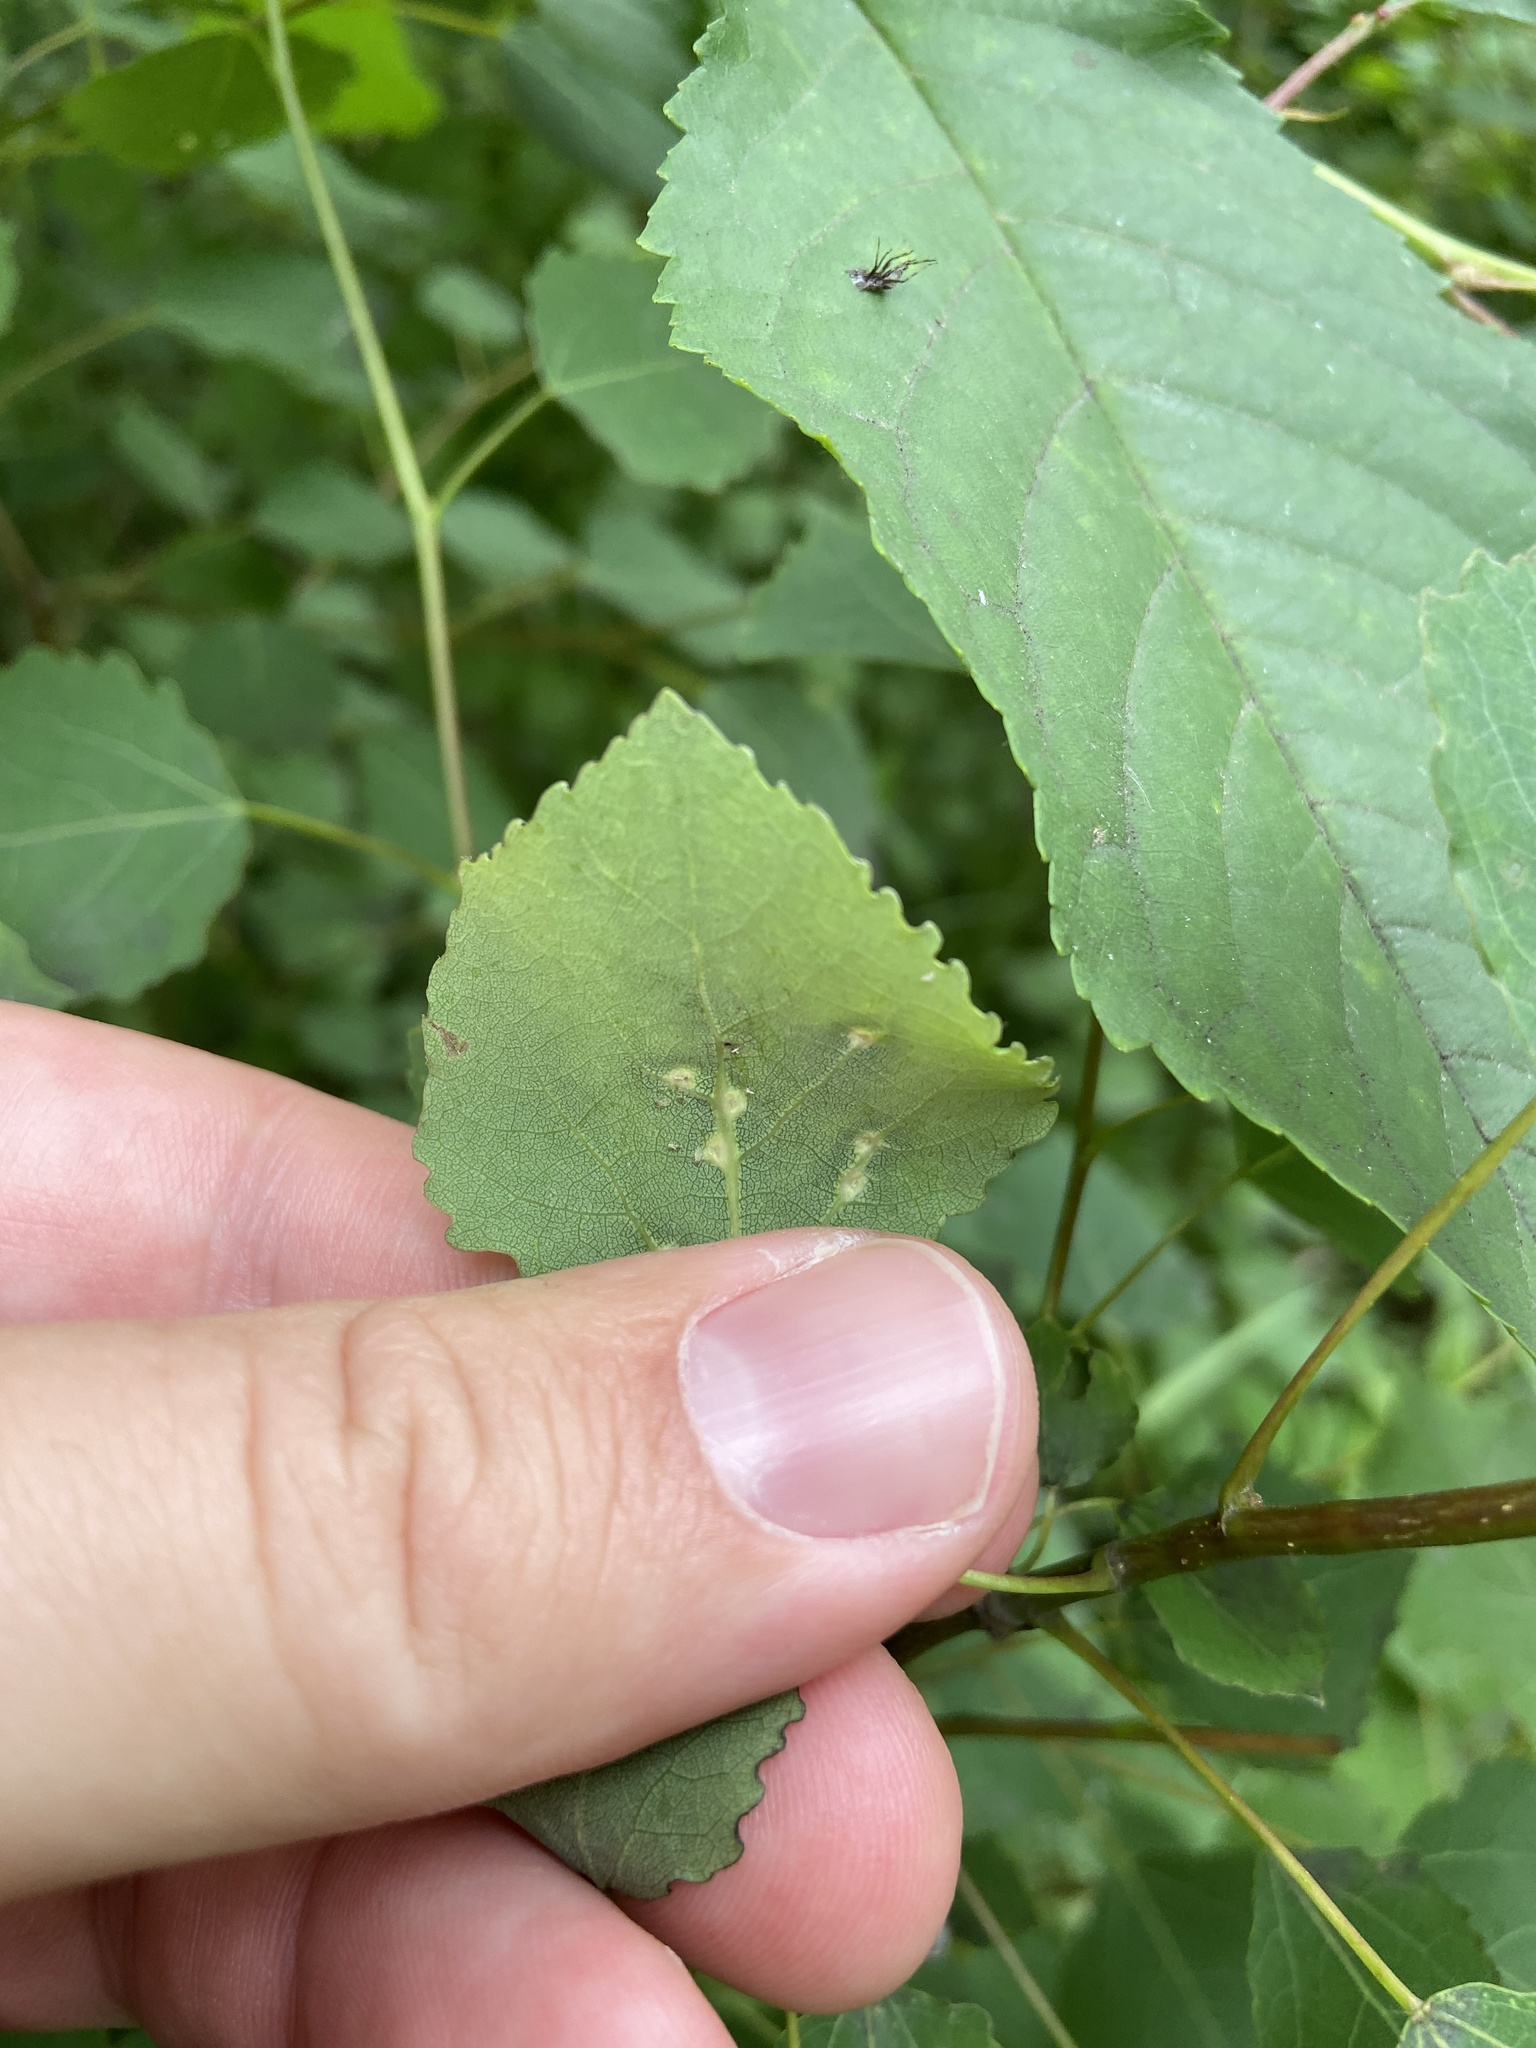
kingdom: Animalia
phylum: Arthropoda
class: Insecta
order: Diptera
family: Cecidomyiidae
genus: Harmandiola
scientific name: Harmandiola globuli
